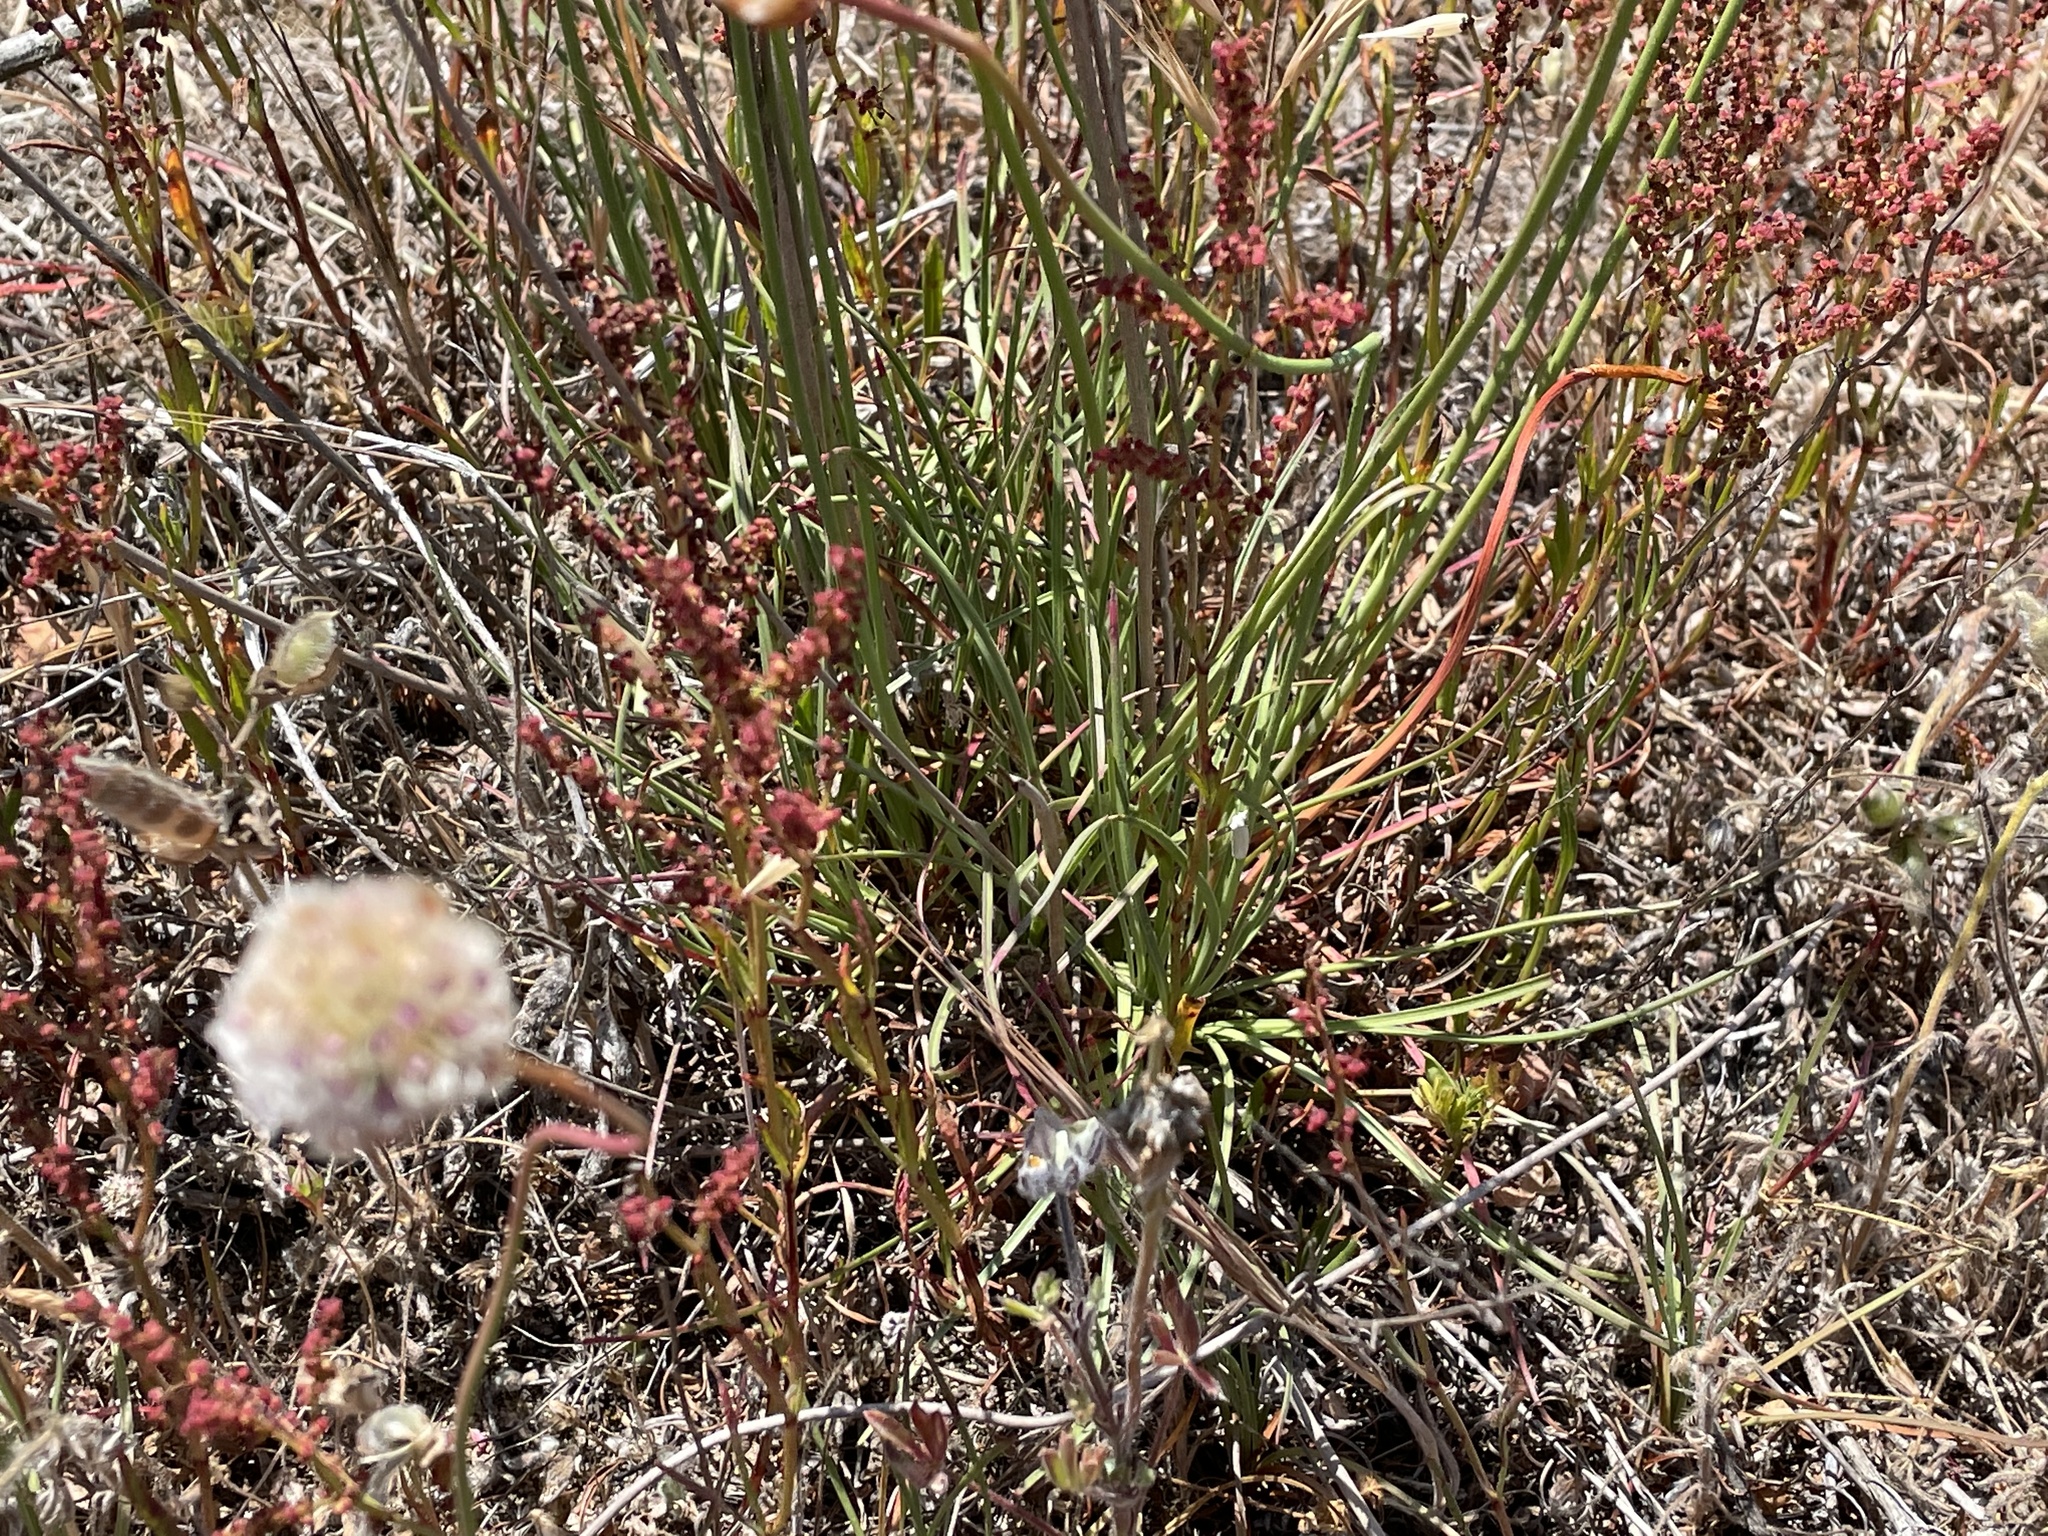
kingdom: Plantae
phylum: Tracheophyta
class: Magnoliopsida
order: Caryophyllales
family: Plumbaginaceae
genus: Armeria
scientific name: Armeria maritima
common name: Thrift
